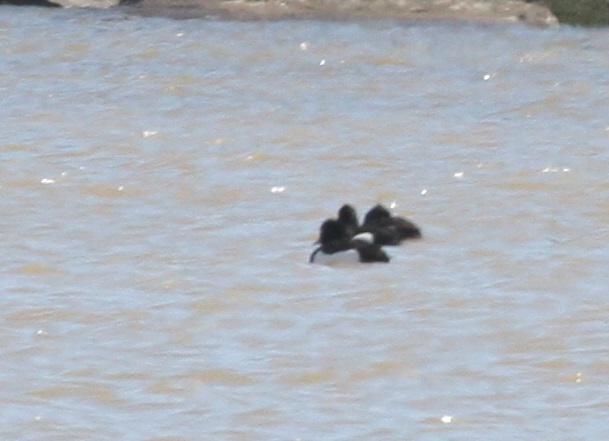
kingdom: Animalia
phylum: Chordata
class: Aves
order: Anseriformes
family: Anatidae
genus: Aythya
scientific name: Aythya fuligula
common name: Tufted duck
